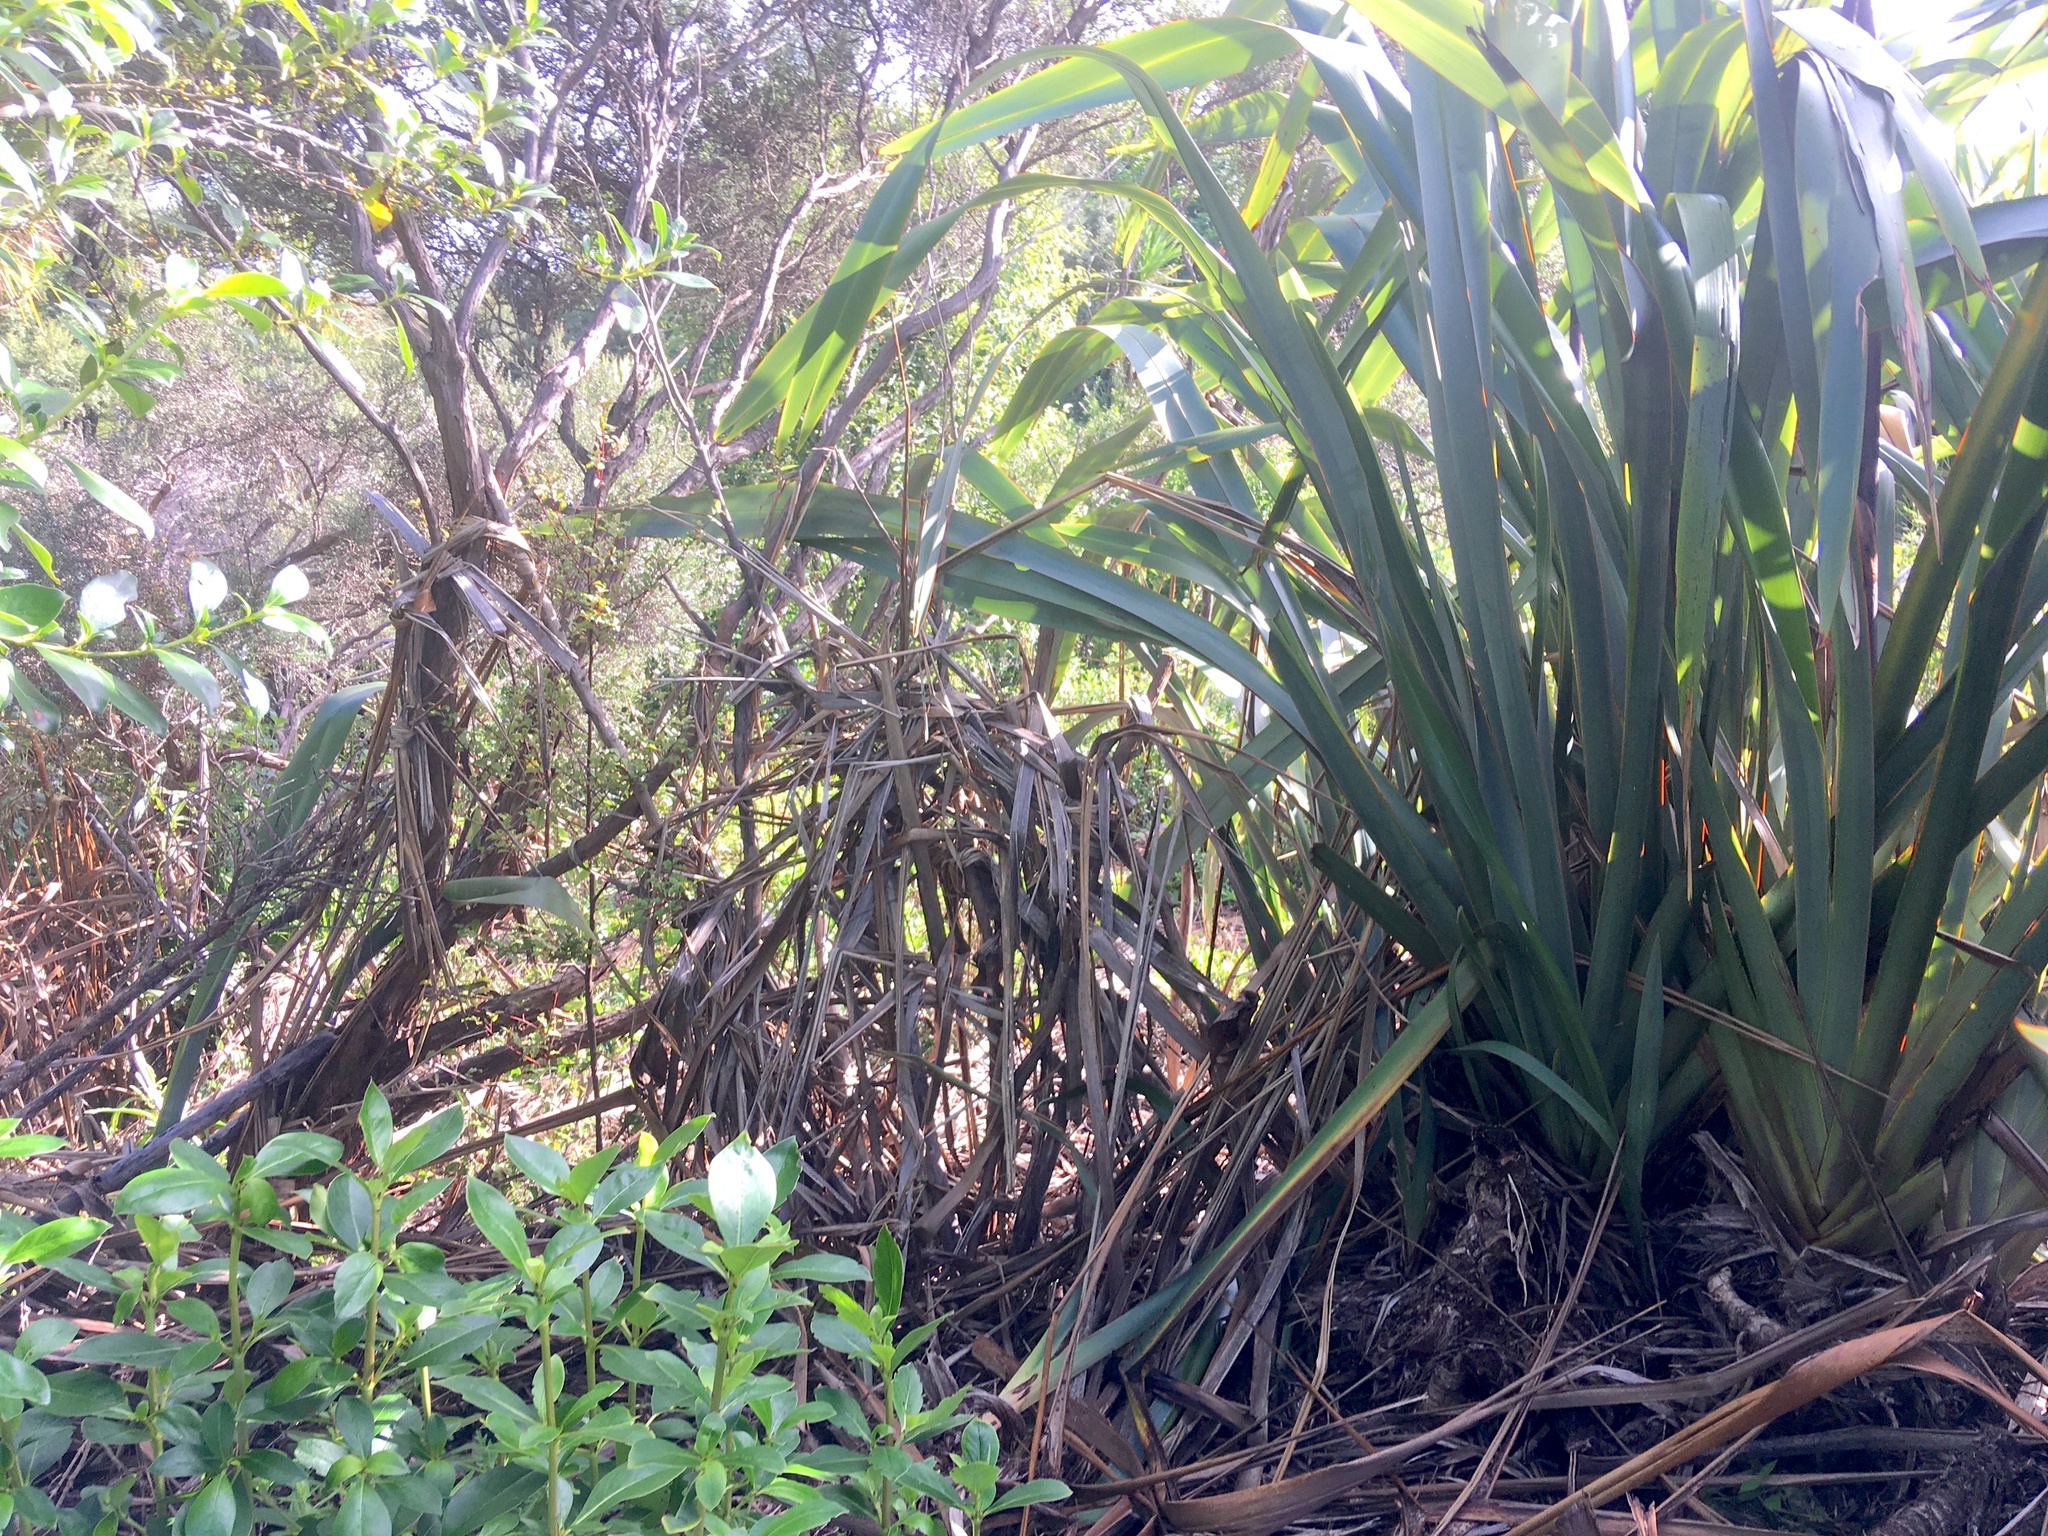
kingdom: Plantae
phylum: Tracheophyta
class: Liliopsida
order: Asparagales
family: Asphodelaceae
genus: Phormium
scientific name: Phormium tenax
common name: New zealand flax
